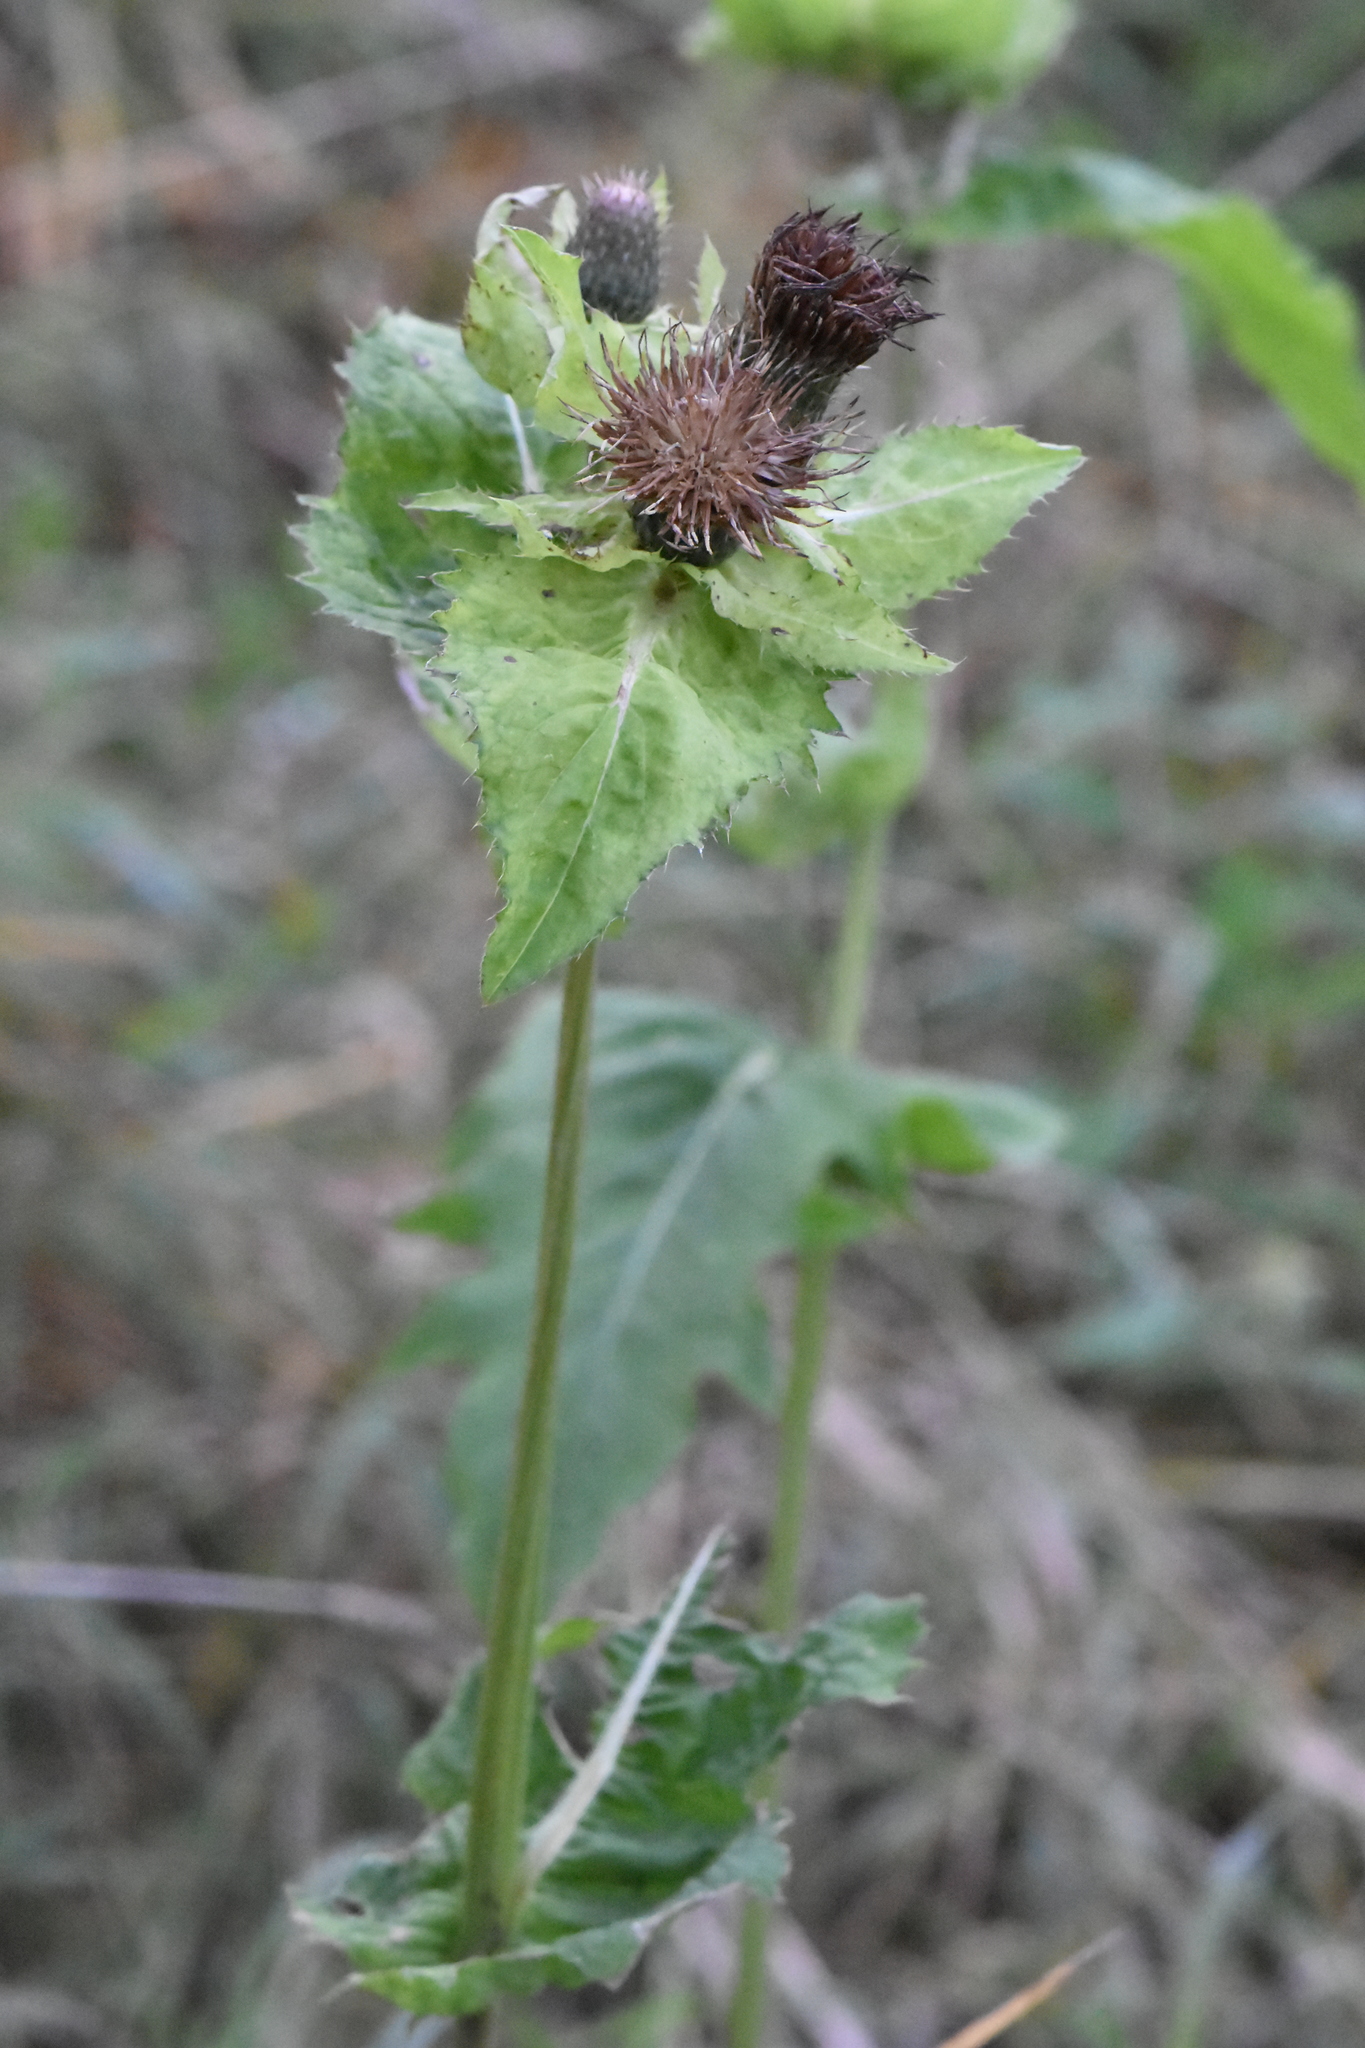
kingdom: Plantae
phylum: Tracheophyta
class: Magnoliopsida
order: Asterales
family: Asteraceae
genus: Cirsium
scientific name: Cirsium oleraceum
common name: Cabbage thistle
